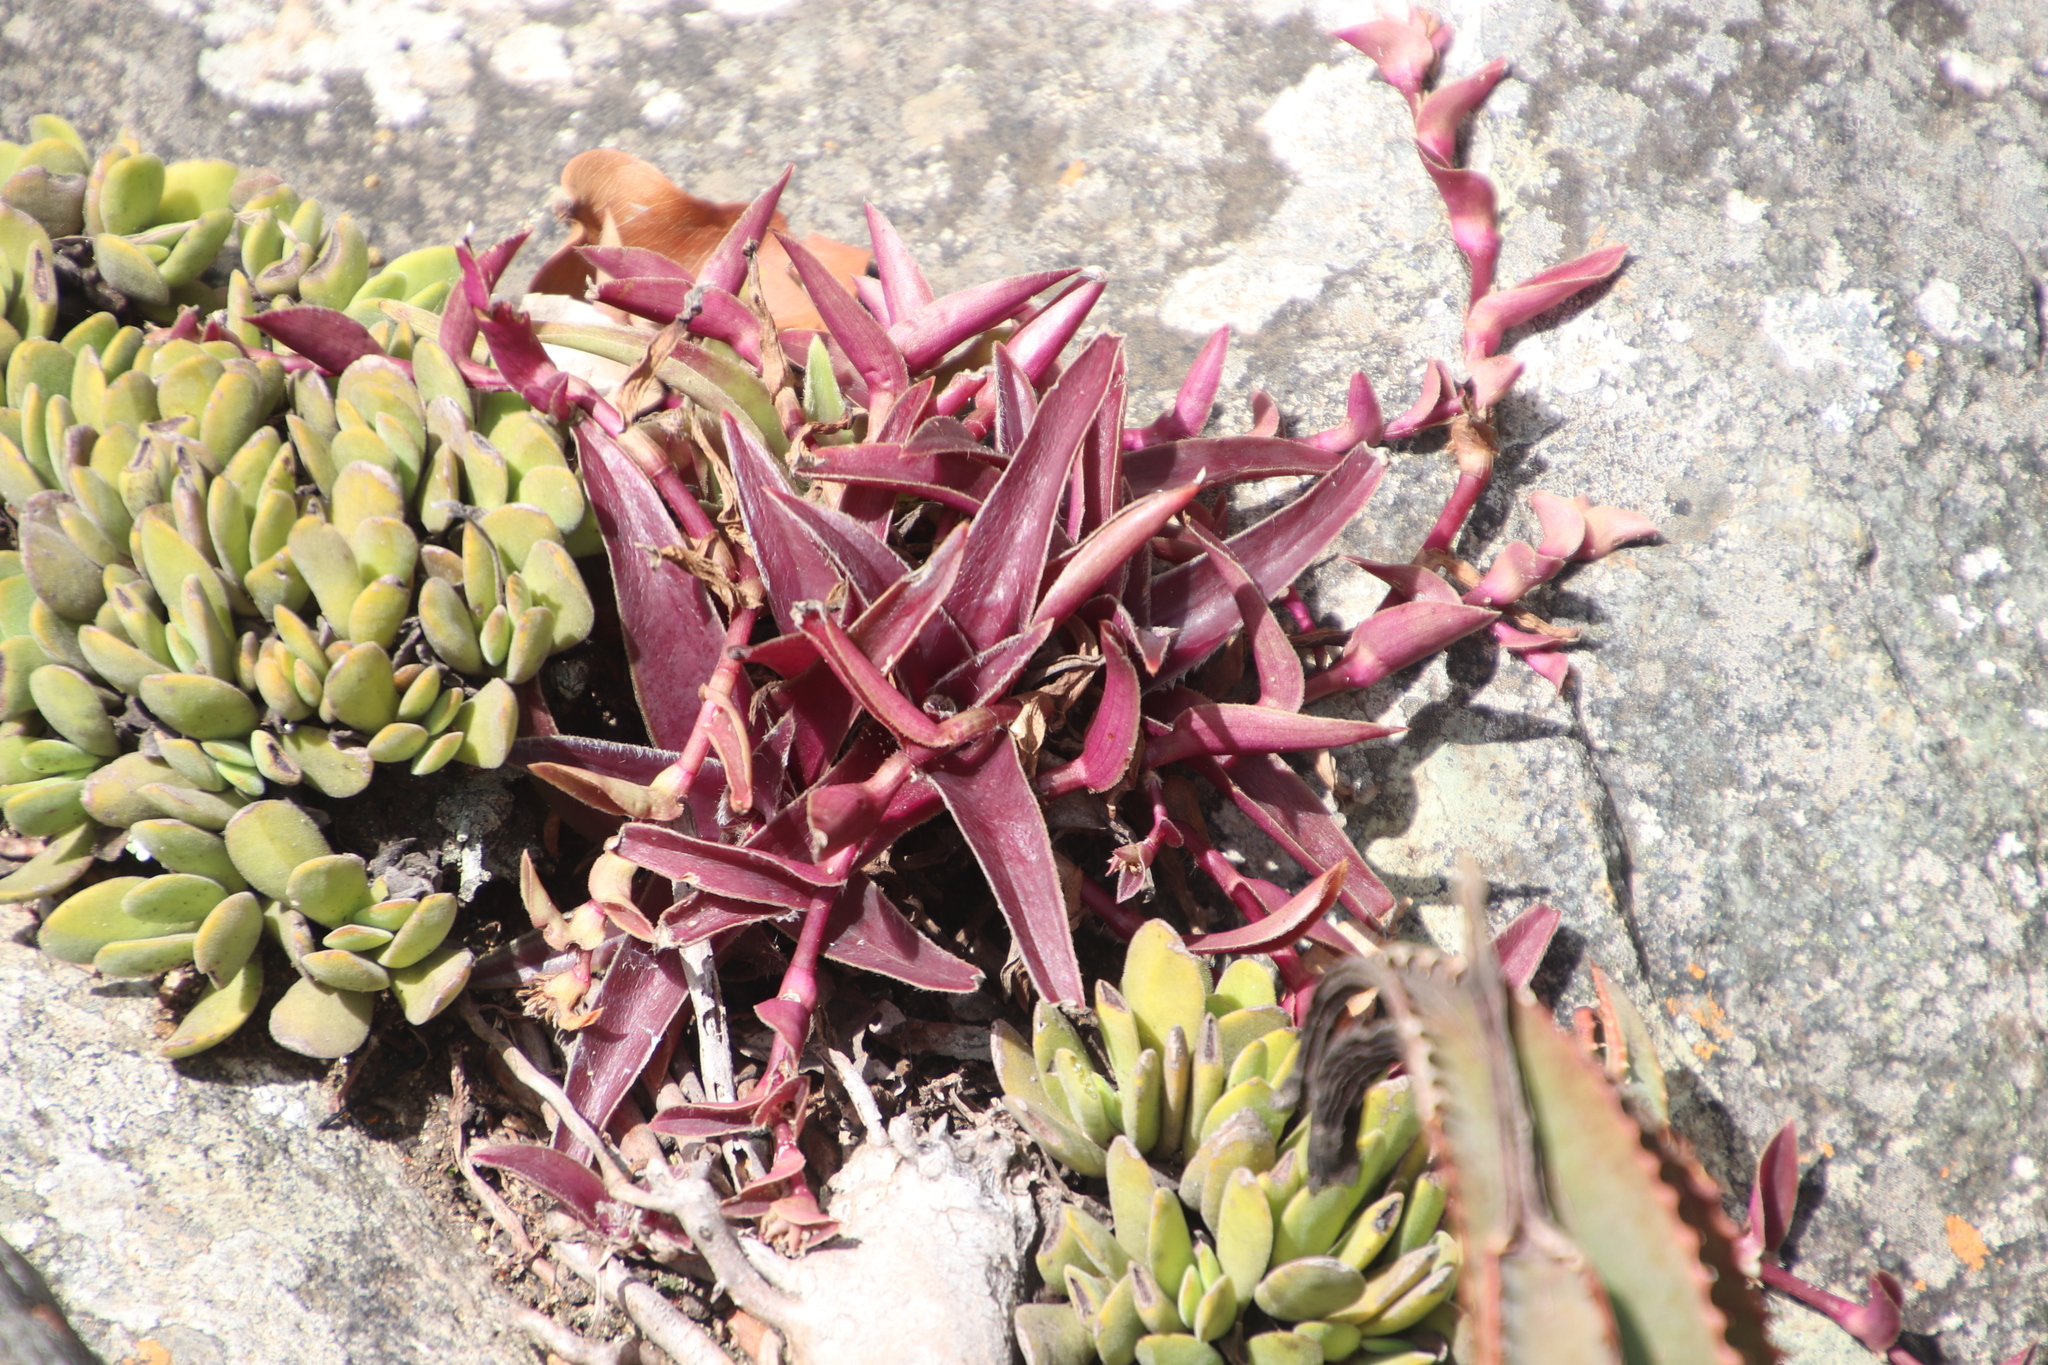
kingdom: Plantae
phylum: Tracheophyta
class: Liliopsida
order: Commelinales
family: Commelinaceae
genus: Cyanotis
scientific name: Cyanotis lapidosa
